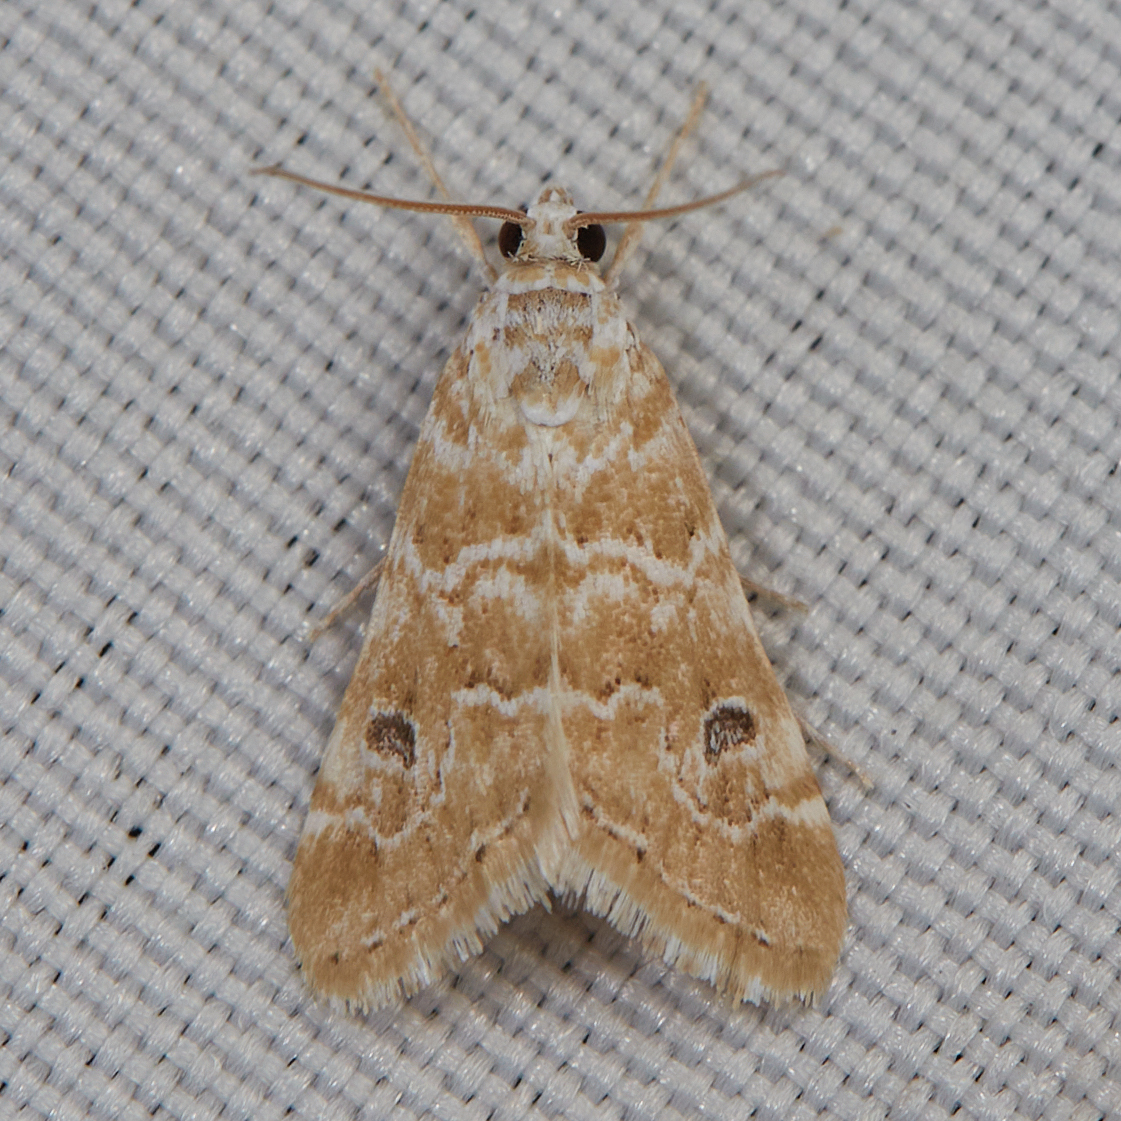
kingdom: Animalia
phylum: Arthropoda
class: Insecta
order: Lepidoptera
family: Crambidae
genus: Hellula
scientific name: Hellula rogatalis
